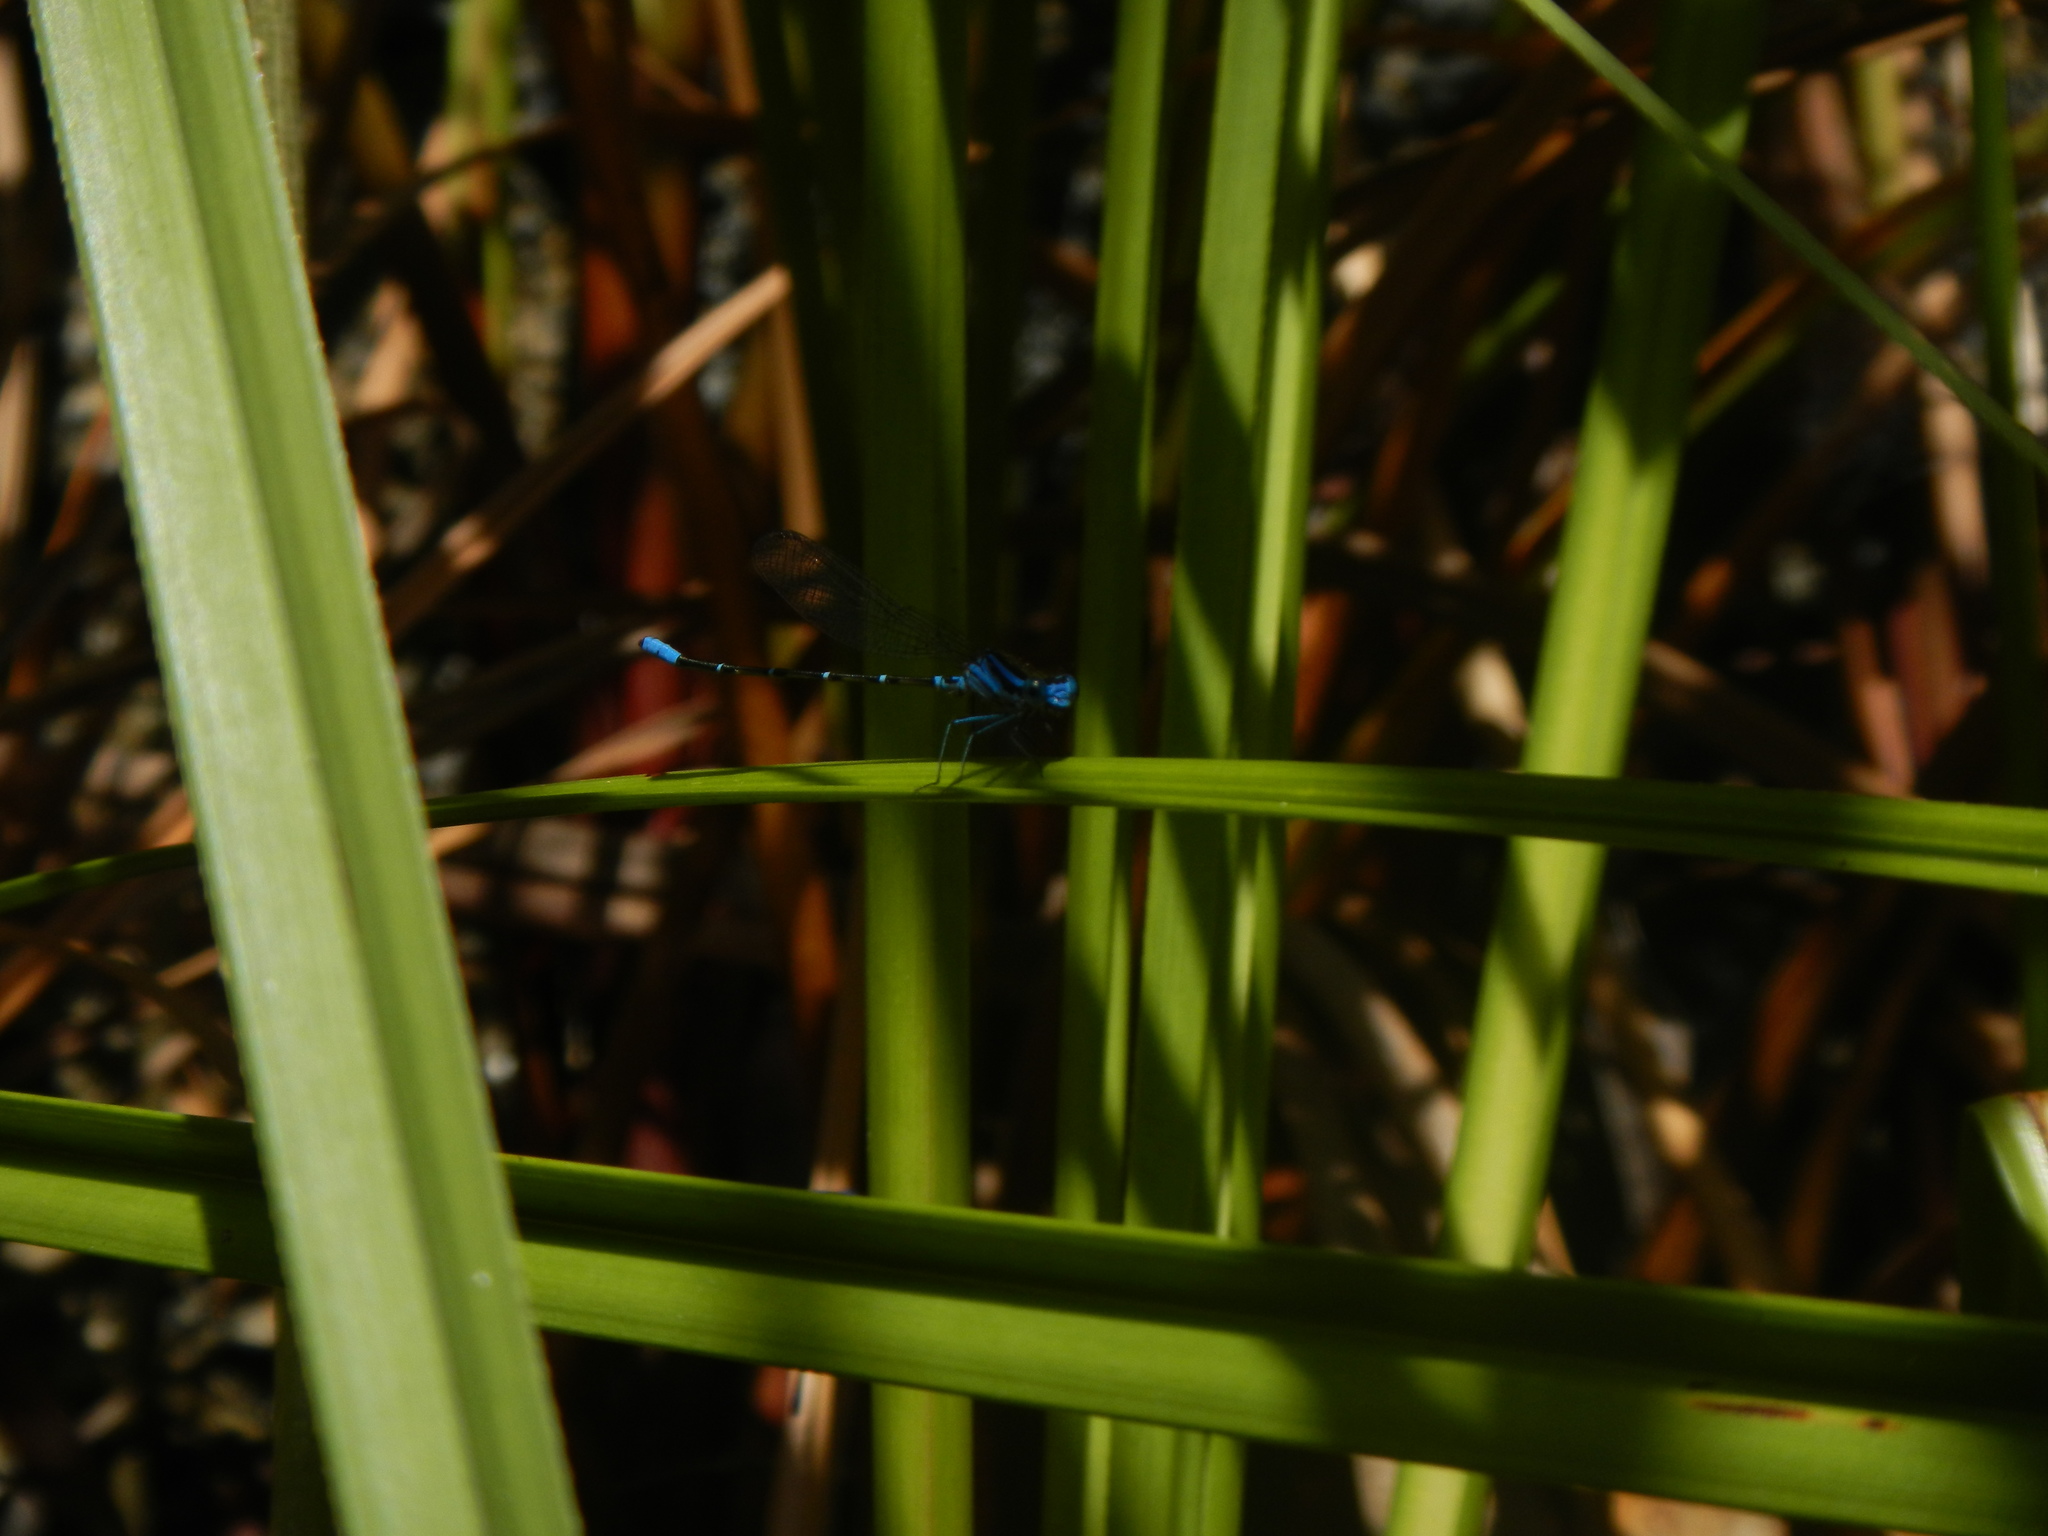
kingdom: Animalia
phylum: Arthropoda
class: Insecta
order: Odonata
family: Coenagrionidae
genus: Argia
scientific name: Argia gaumeri
